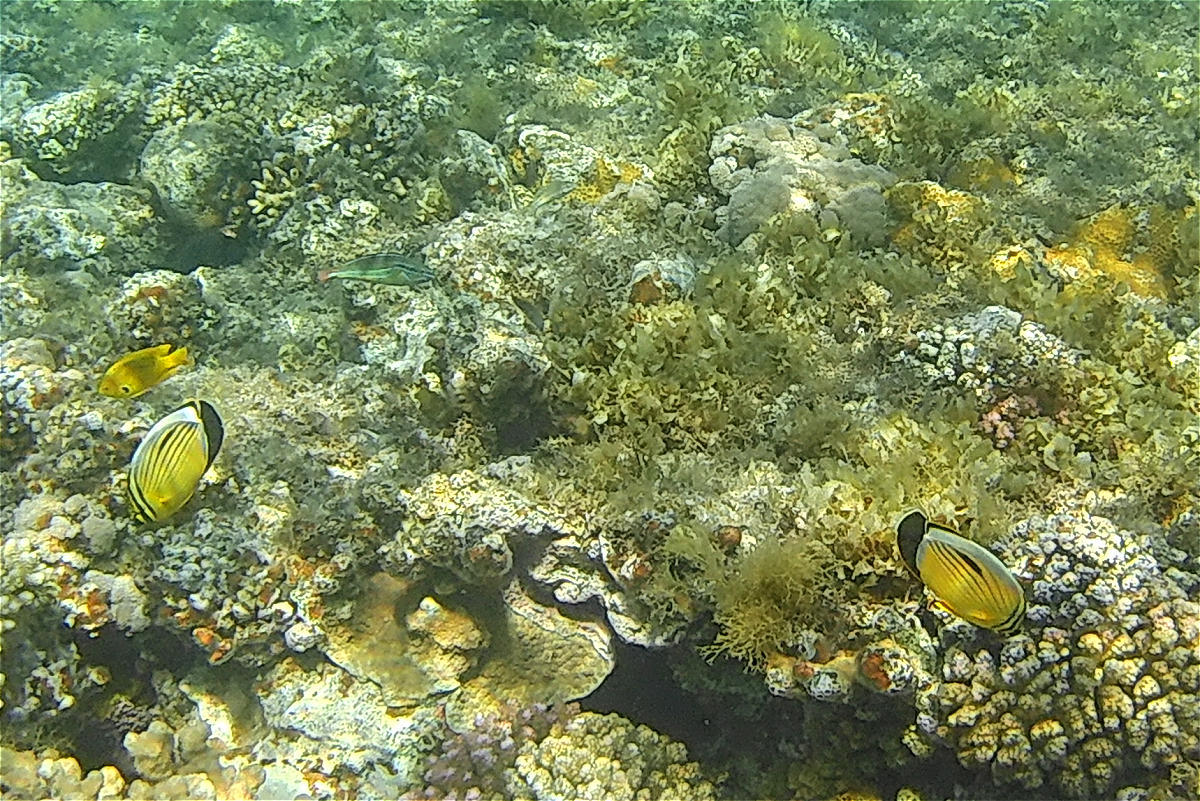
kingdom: Animalia
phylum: Chordata
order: Perciformes
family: Chaetodontidae
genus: Chaetodon
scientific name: Chaetodon austriacus
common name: Exquisite butterflyfish
